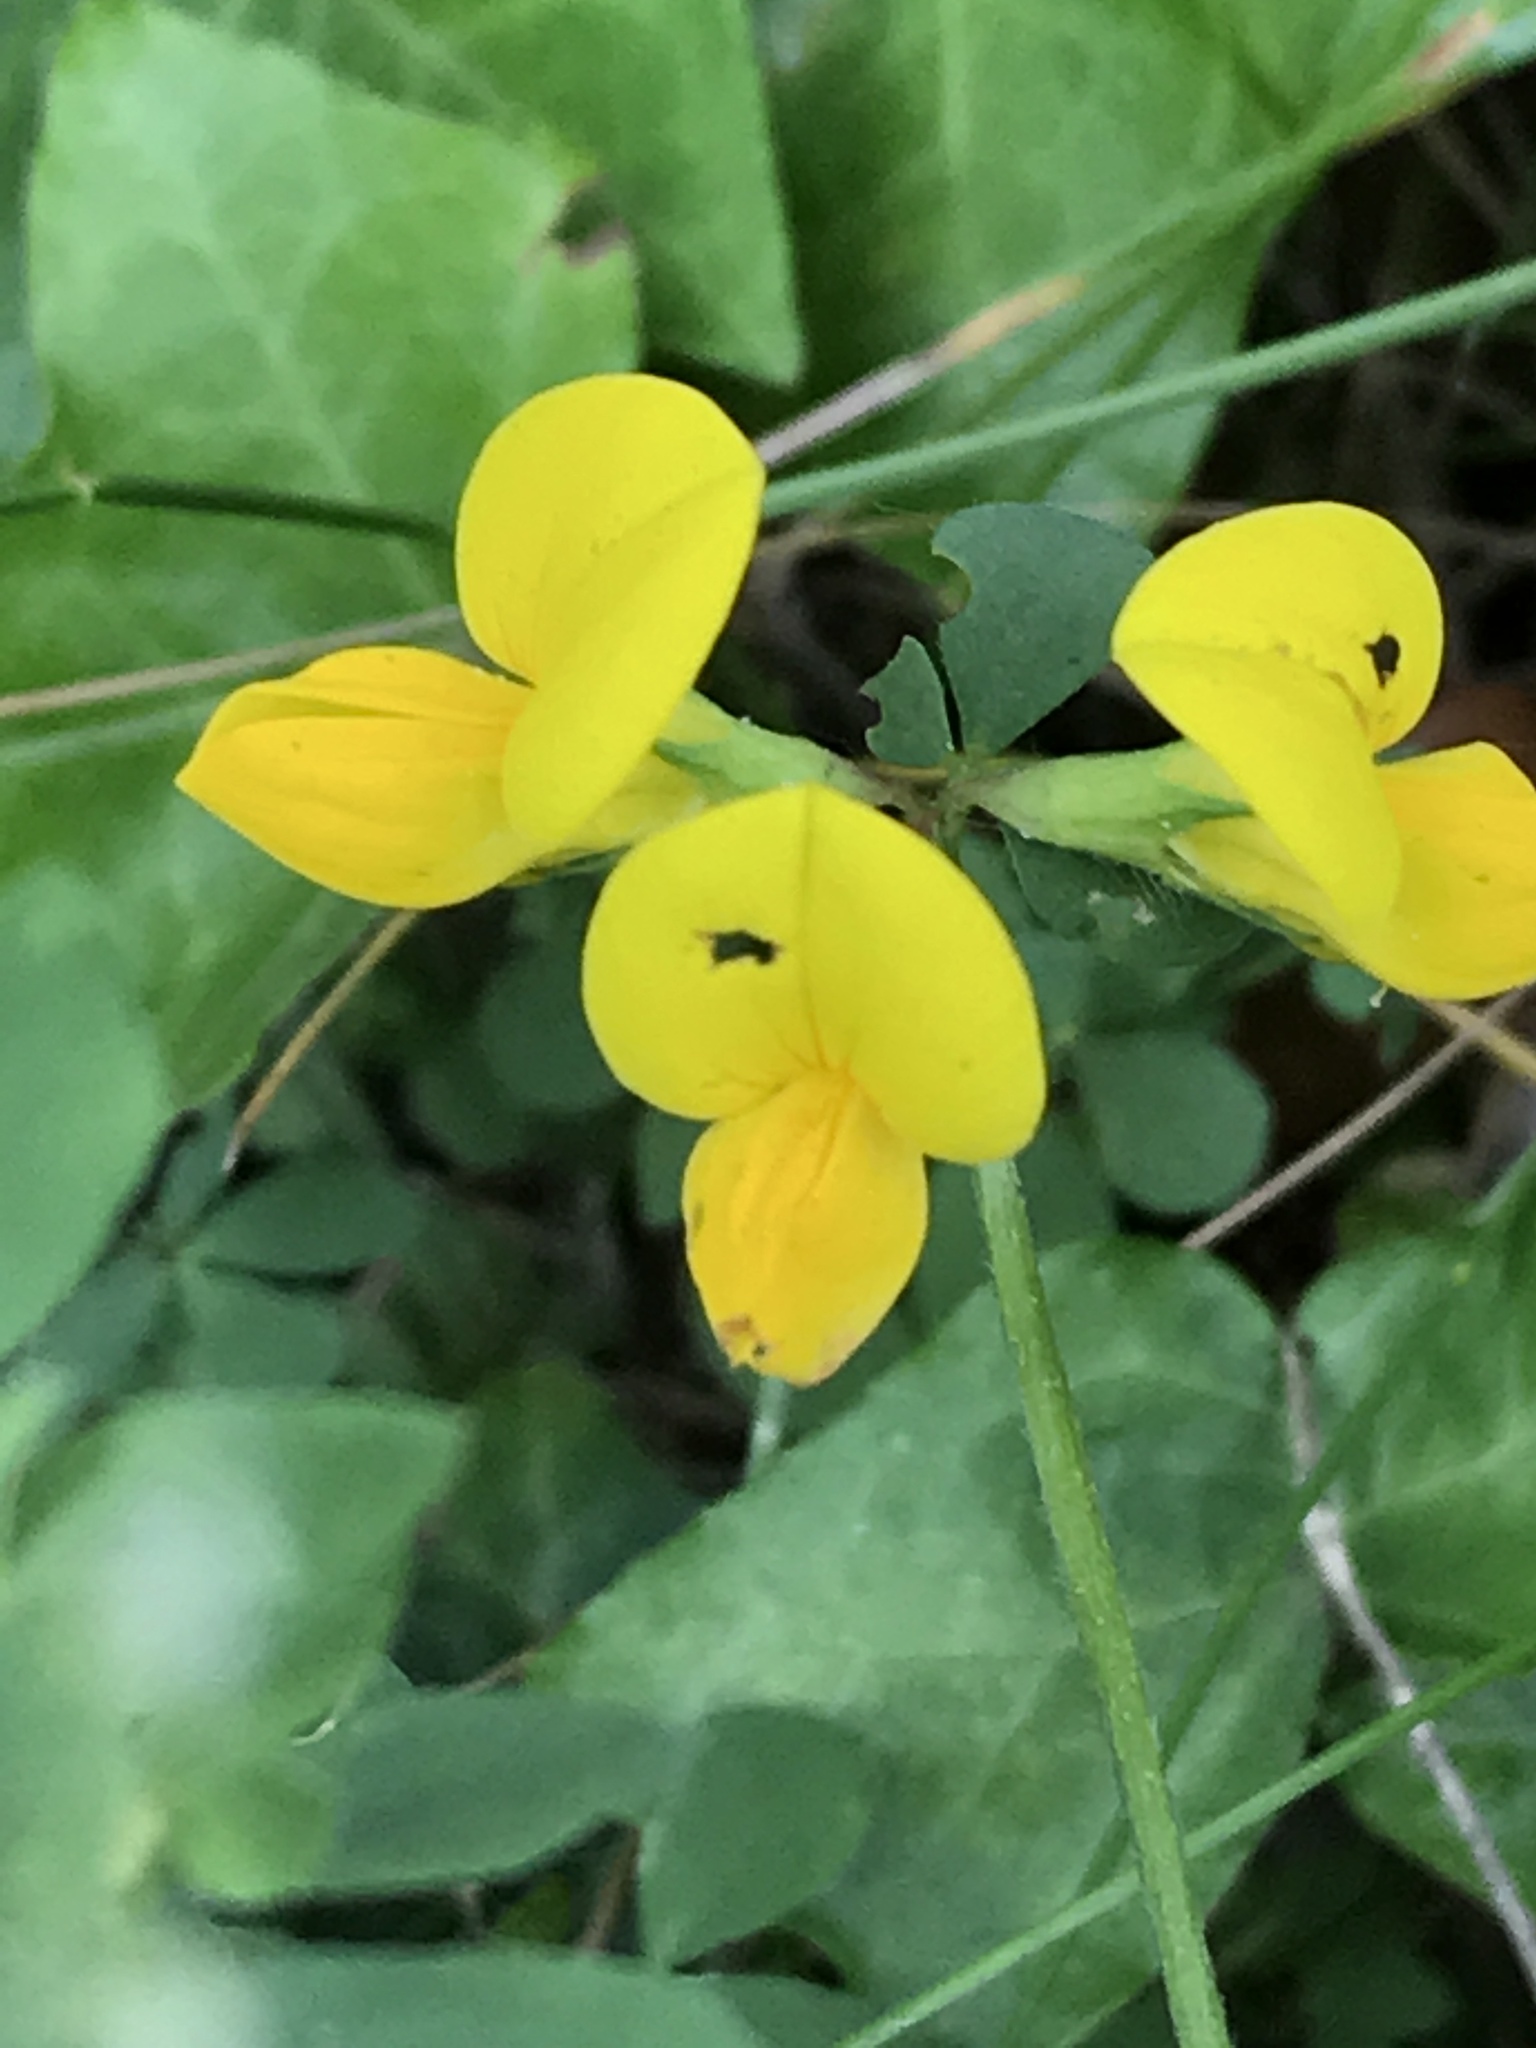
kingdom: Plantae
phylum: Tracheophyta
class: Magnoliopsida
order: Fabales
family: Fabaceae
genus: Lotus
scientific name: Lotus corniculatus
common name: Common bird's-foot-trefoil
